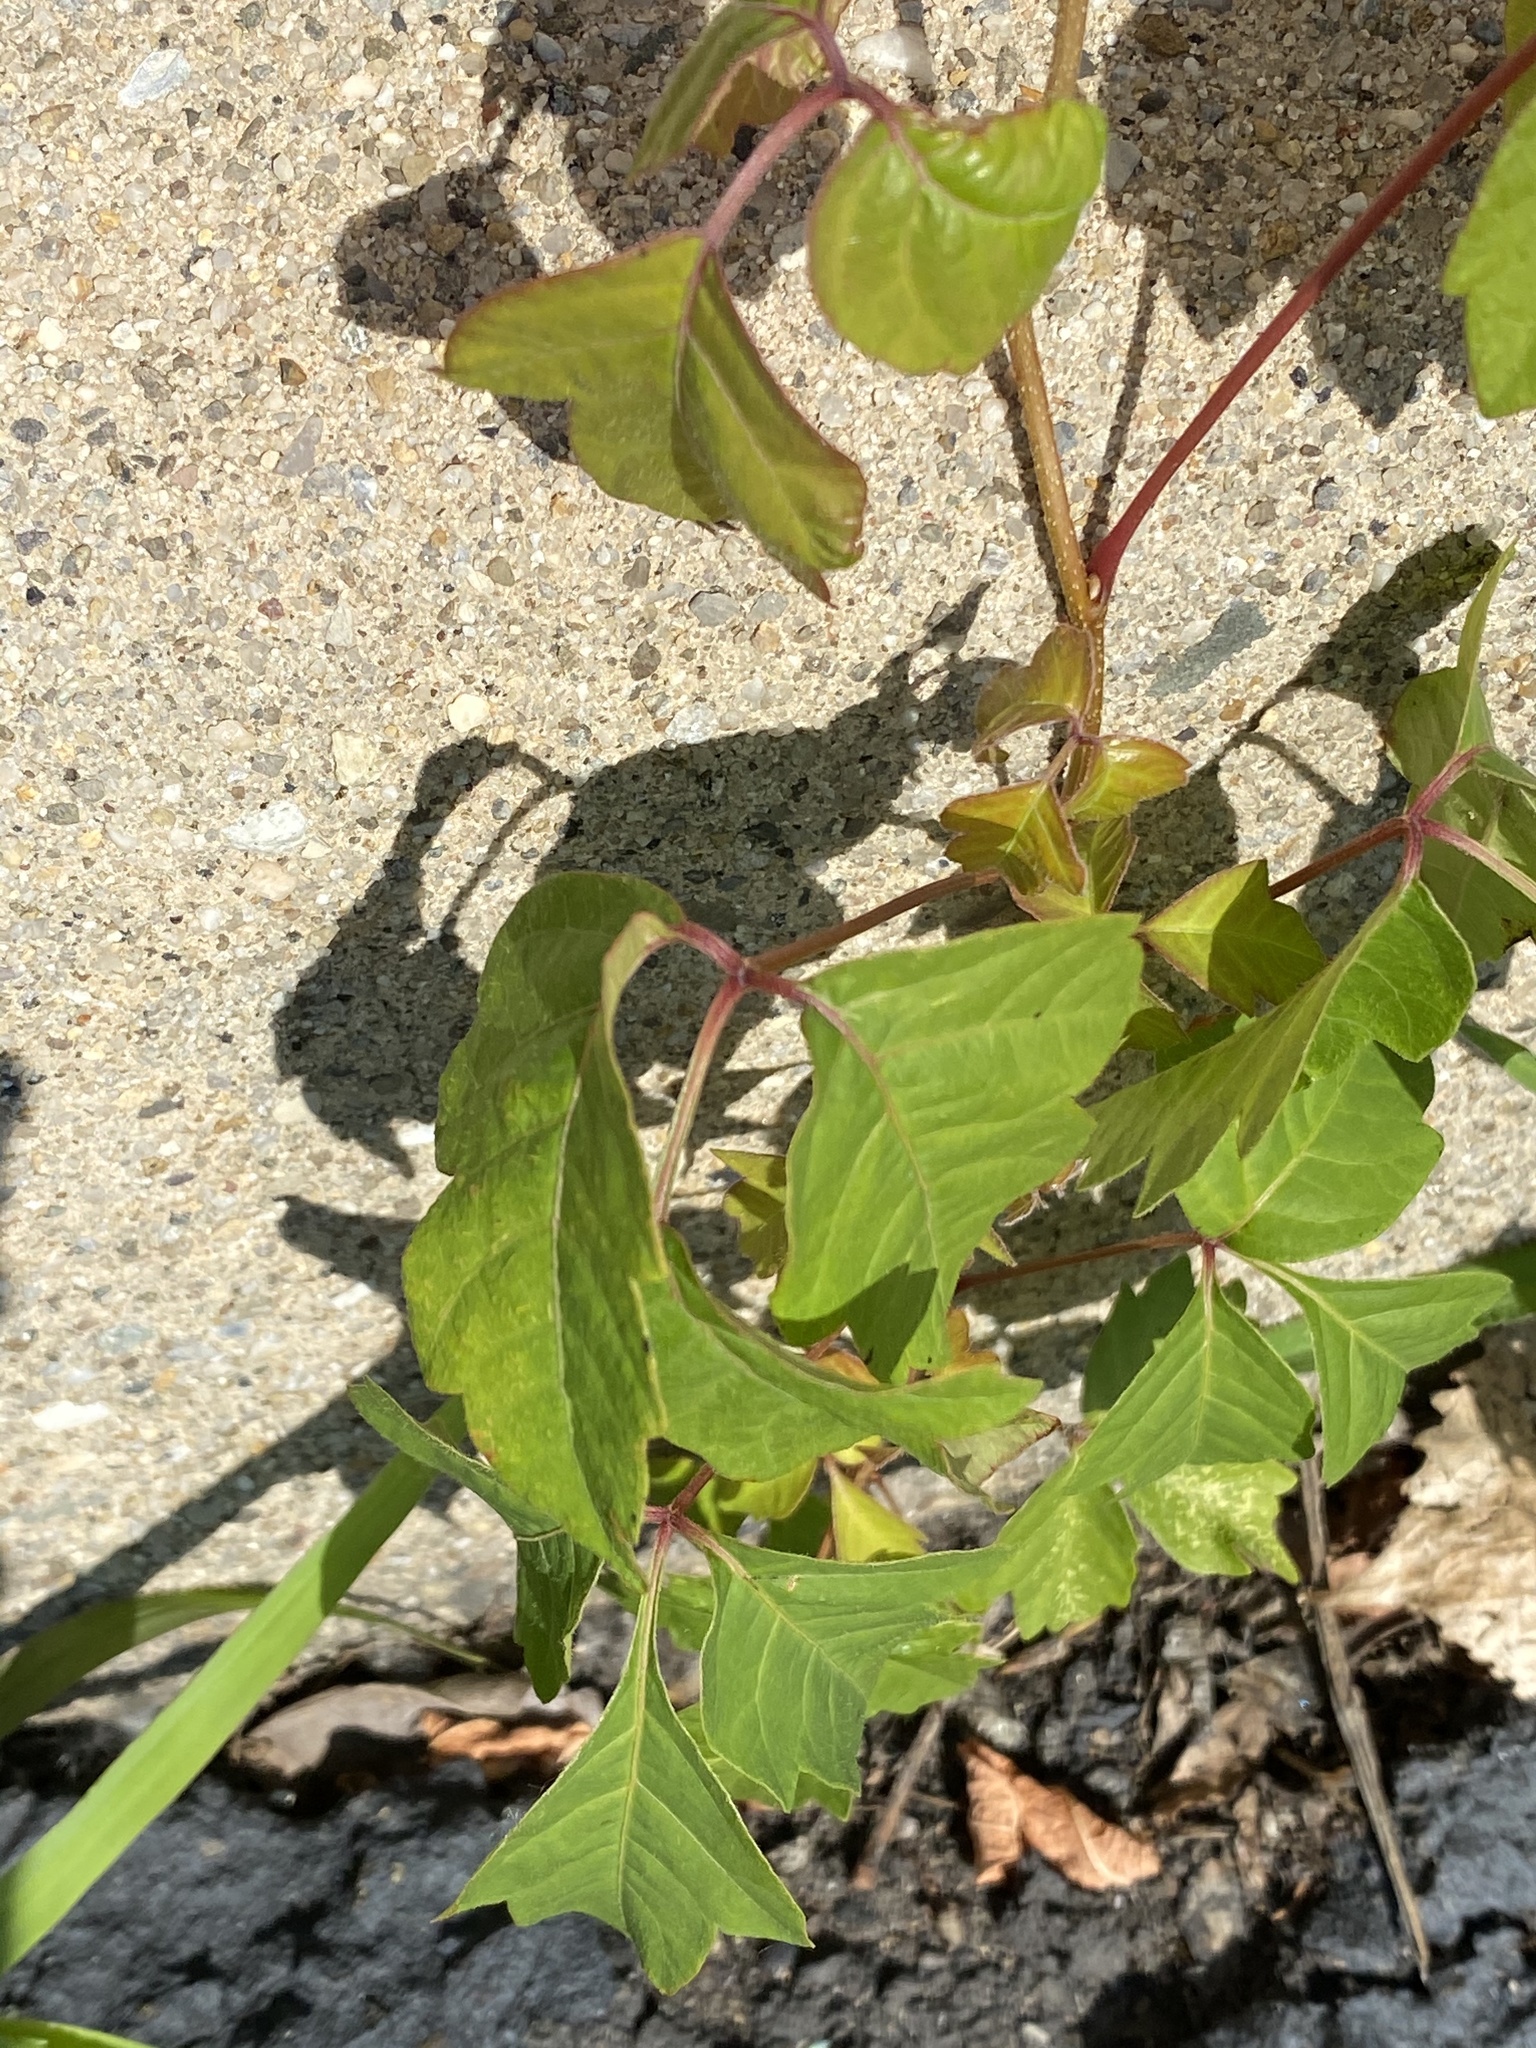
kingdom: Plantae
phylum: Tracheophyta
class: Magnoliopsida
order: Sapindales
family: Anacardiaceae
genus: Toxicodendron
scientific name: Toxicodendron radicans
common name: Poison ivy
